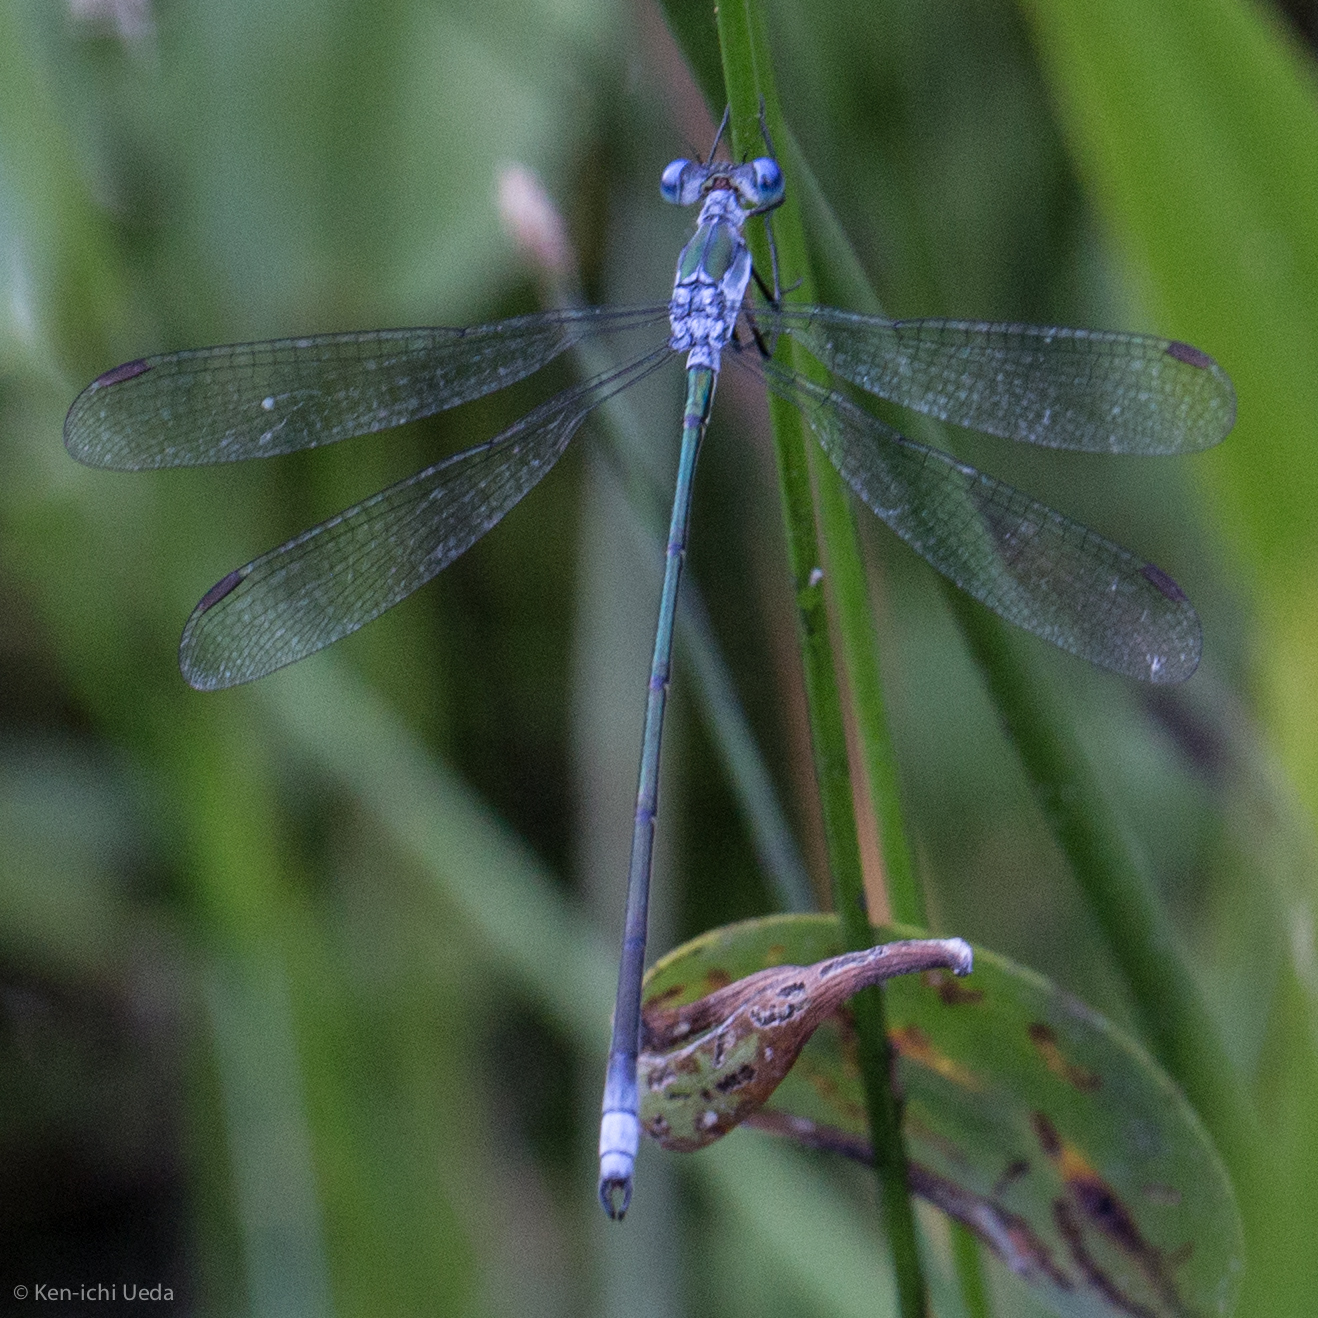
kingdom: Animalia
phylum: Arthropoda
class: Insecta
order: Odonata
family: Lestidae
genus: Lestes
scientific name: Lestes vigilax
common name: Swamp spreadwing
